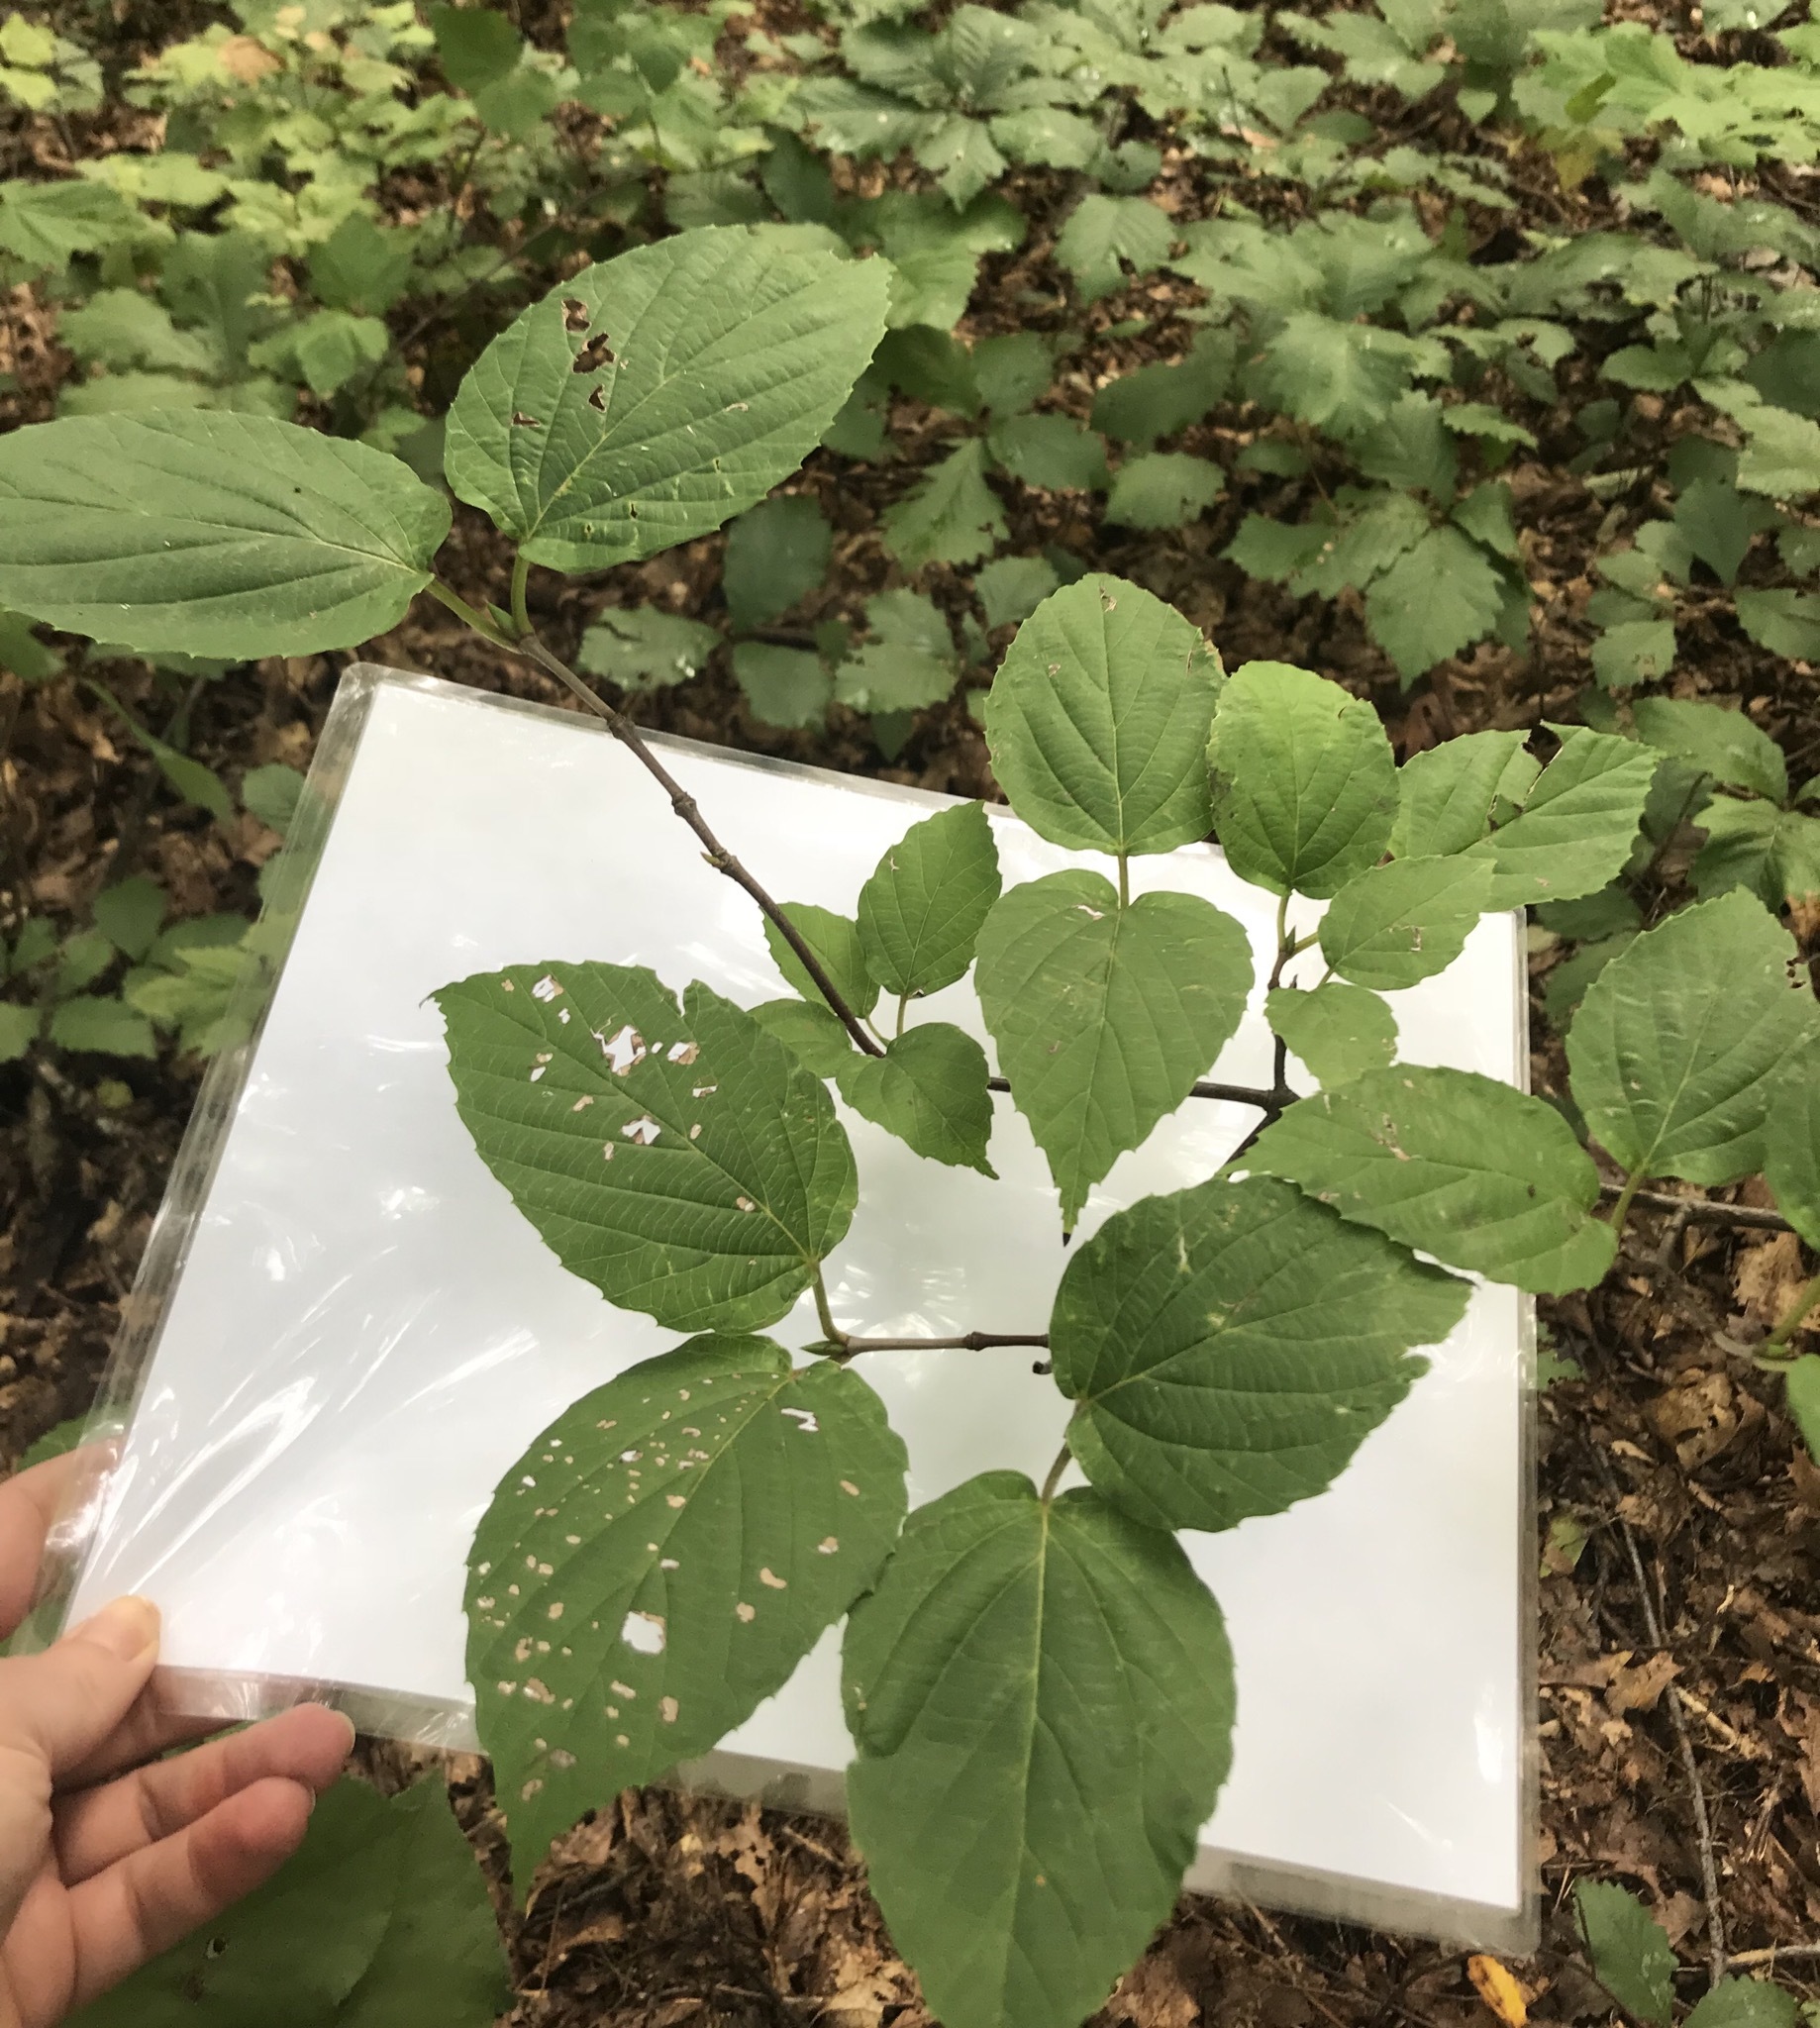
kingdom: Plantae
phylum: Tracheophyta
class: Magnoliopsida
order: Dipsacales
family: Viburnaceae
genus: Viburnum
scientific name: Viburnum setigerum
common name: Tea viburnum
